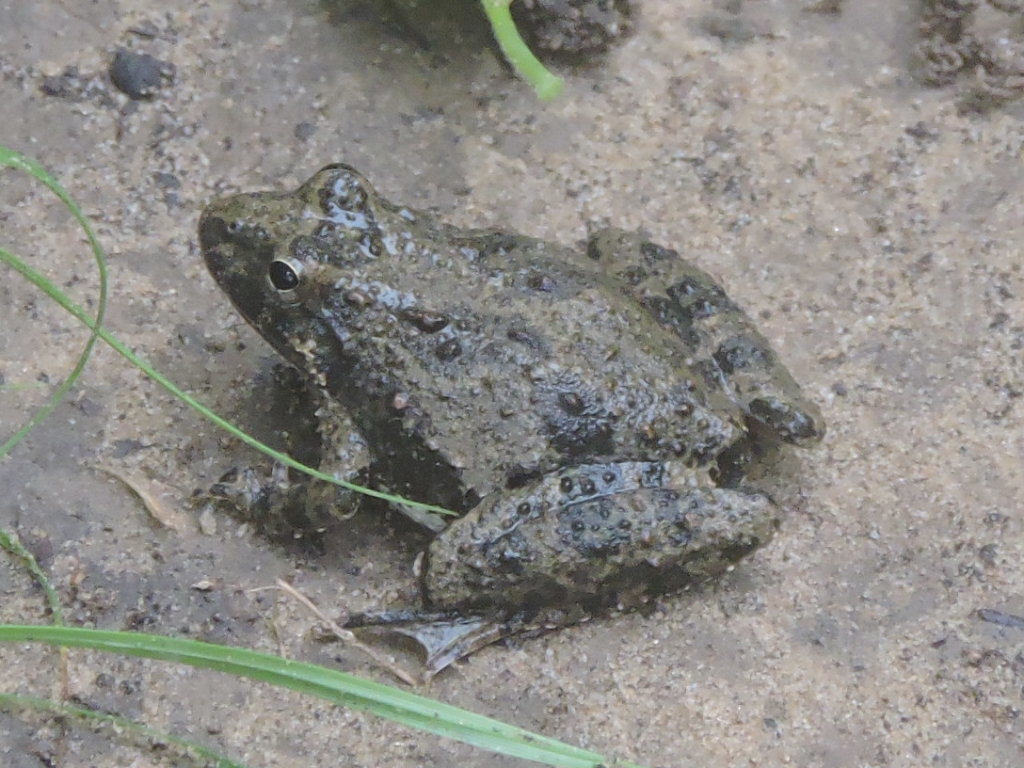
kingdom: Animalia
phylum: Chordata
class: Amphibia
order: Anura
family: Hylidae
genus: Acris
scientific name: Acris blanchardi
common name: Blanchard's cricket frog
